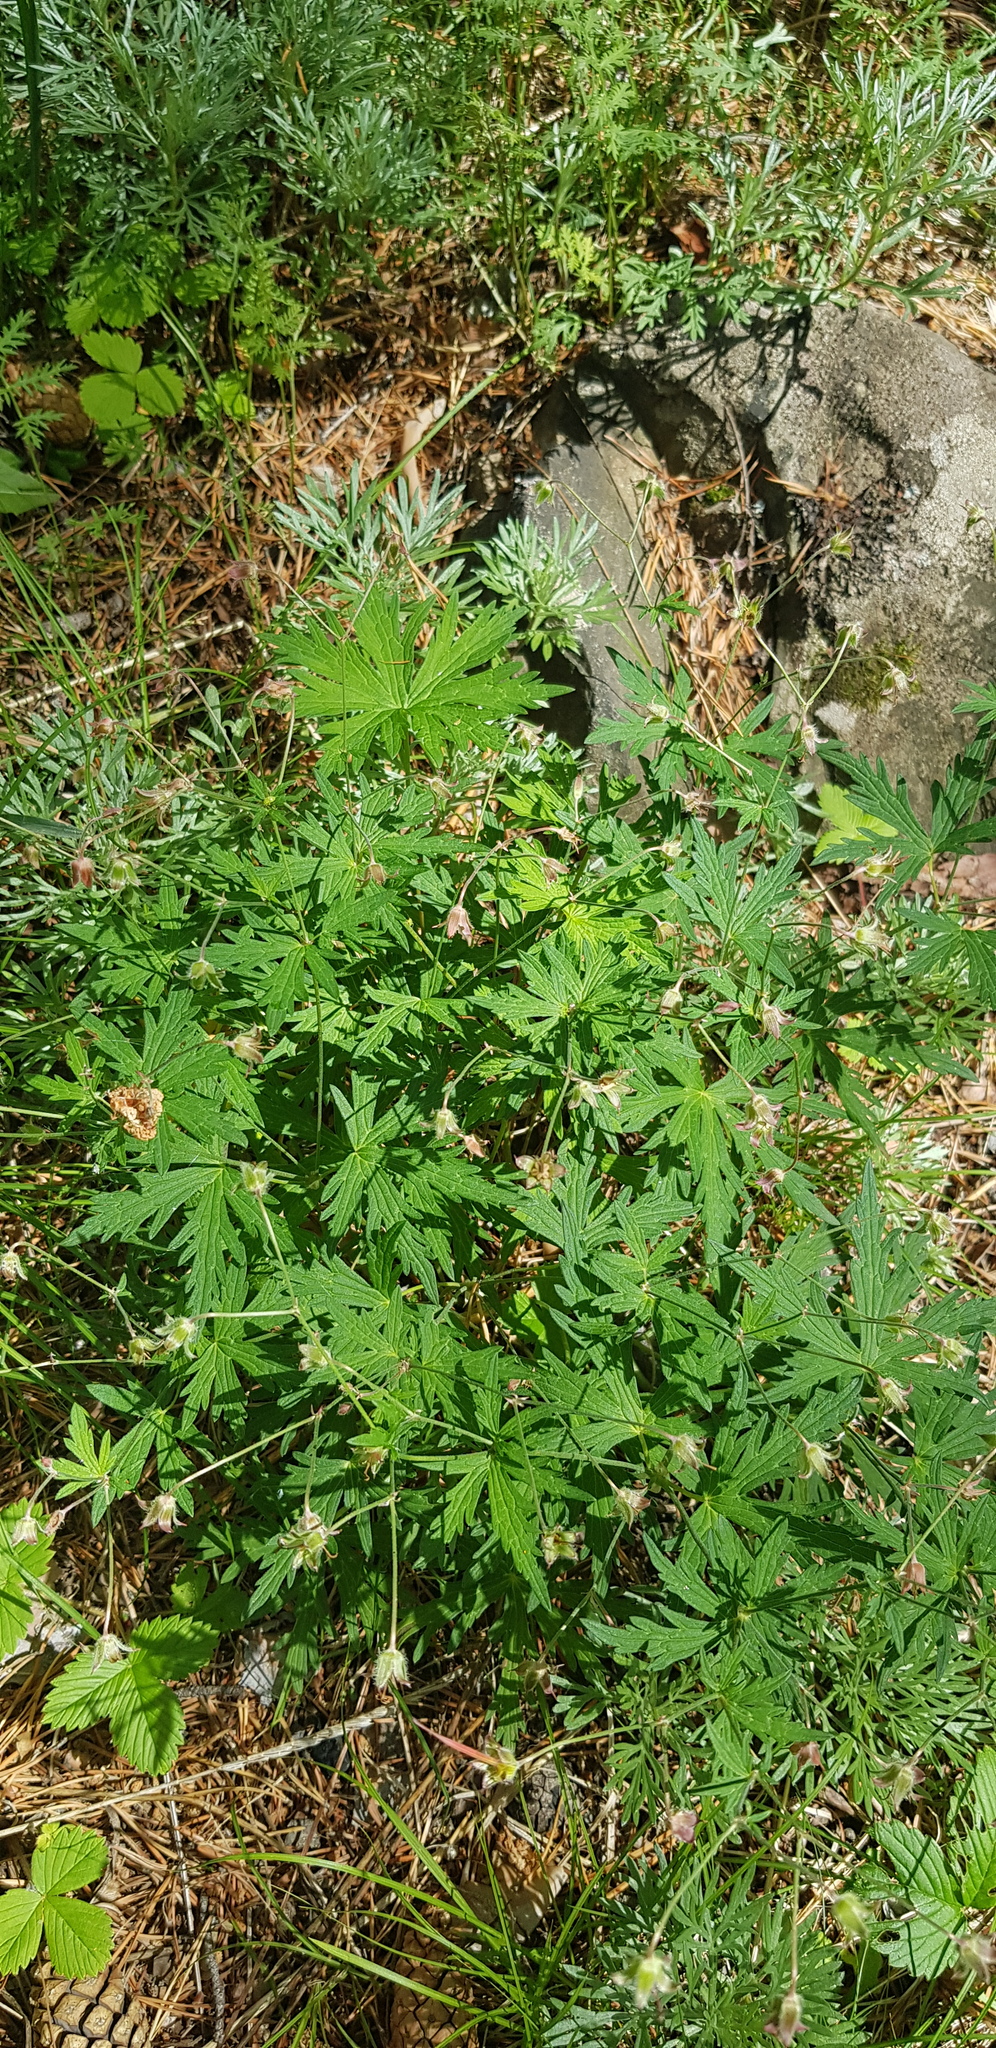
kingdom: Plantae
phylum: Tracheophyta
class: Magnoliopsida
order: Geraniales
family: Geraniaceae
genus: Geranium
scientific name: Geranium pseudosibiricum
